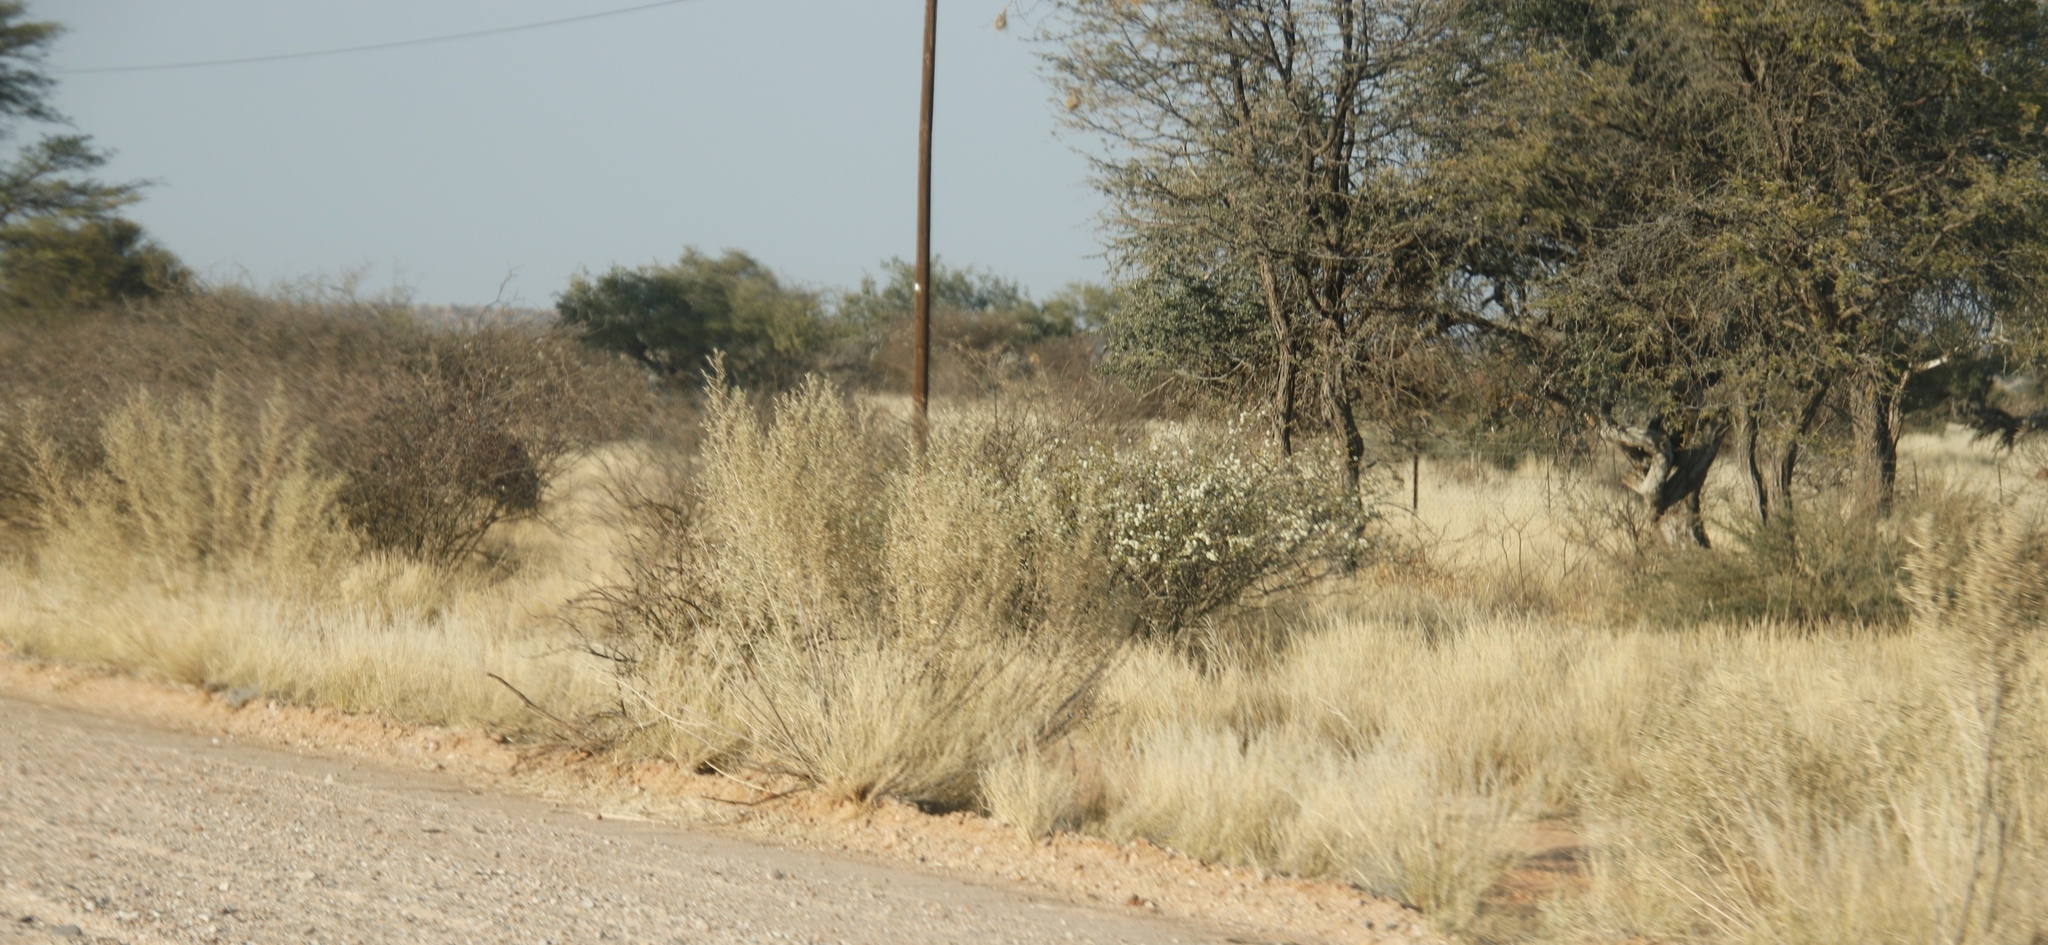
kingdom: Plantae
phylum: Tracheophyta
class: Magnoliopsida
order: Fabales
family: Fabaceae
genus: Senegalia
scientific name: Senegalia mellifera
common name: Hookthorn
